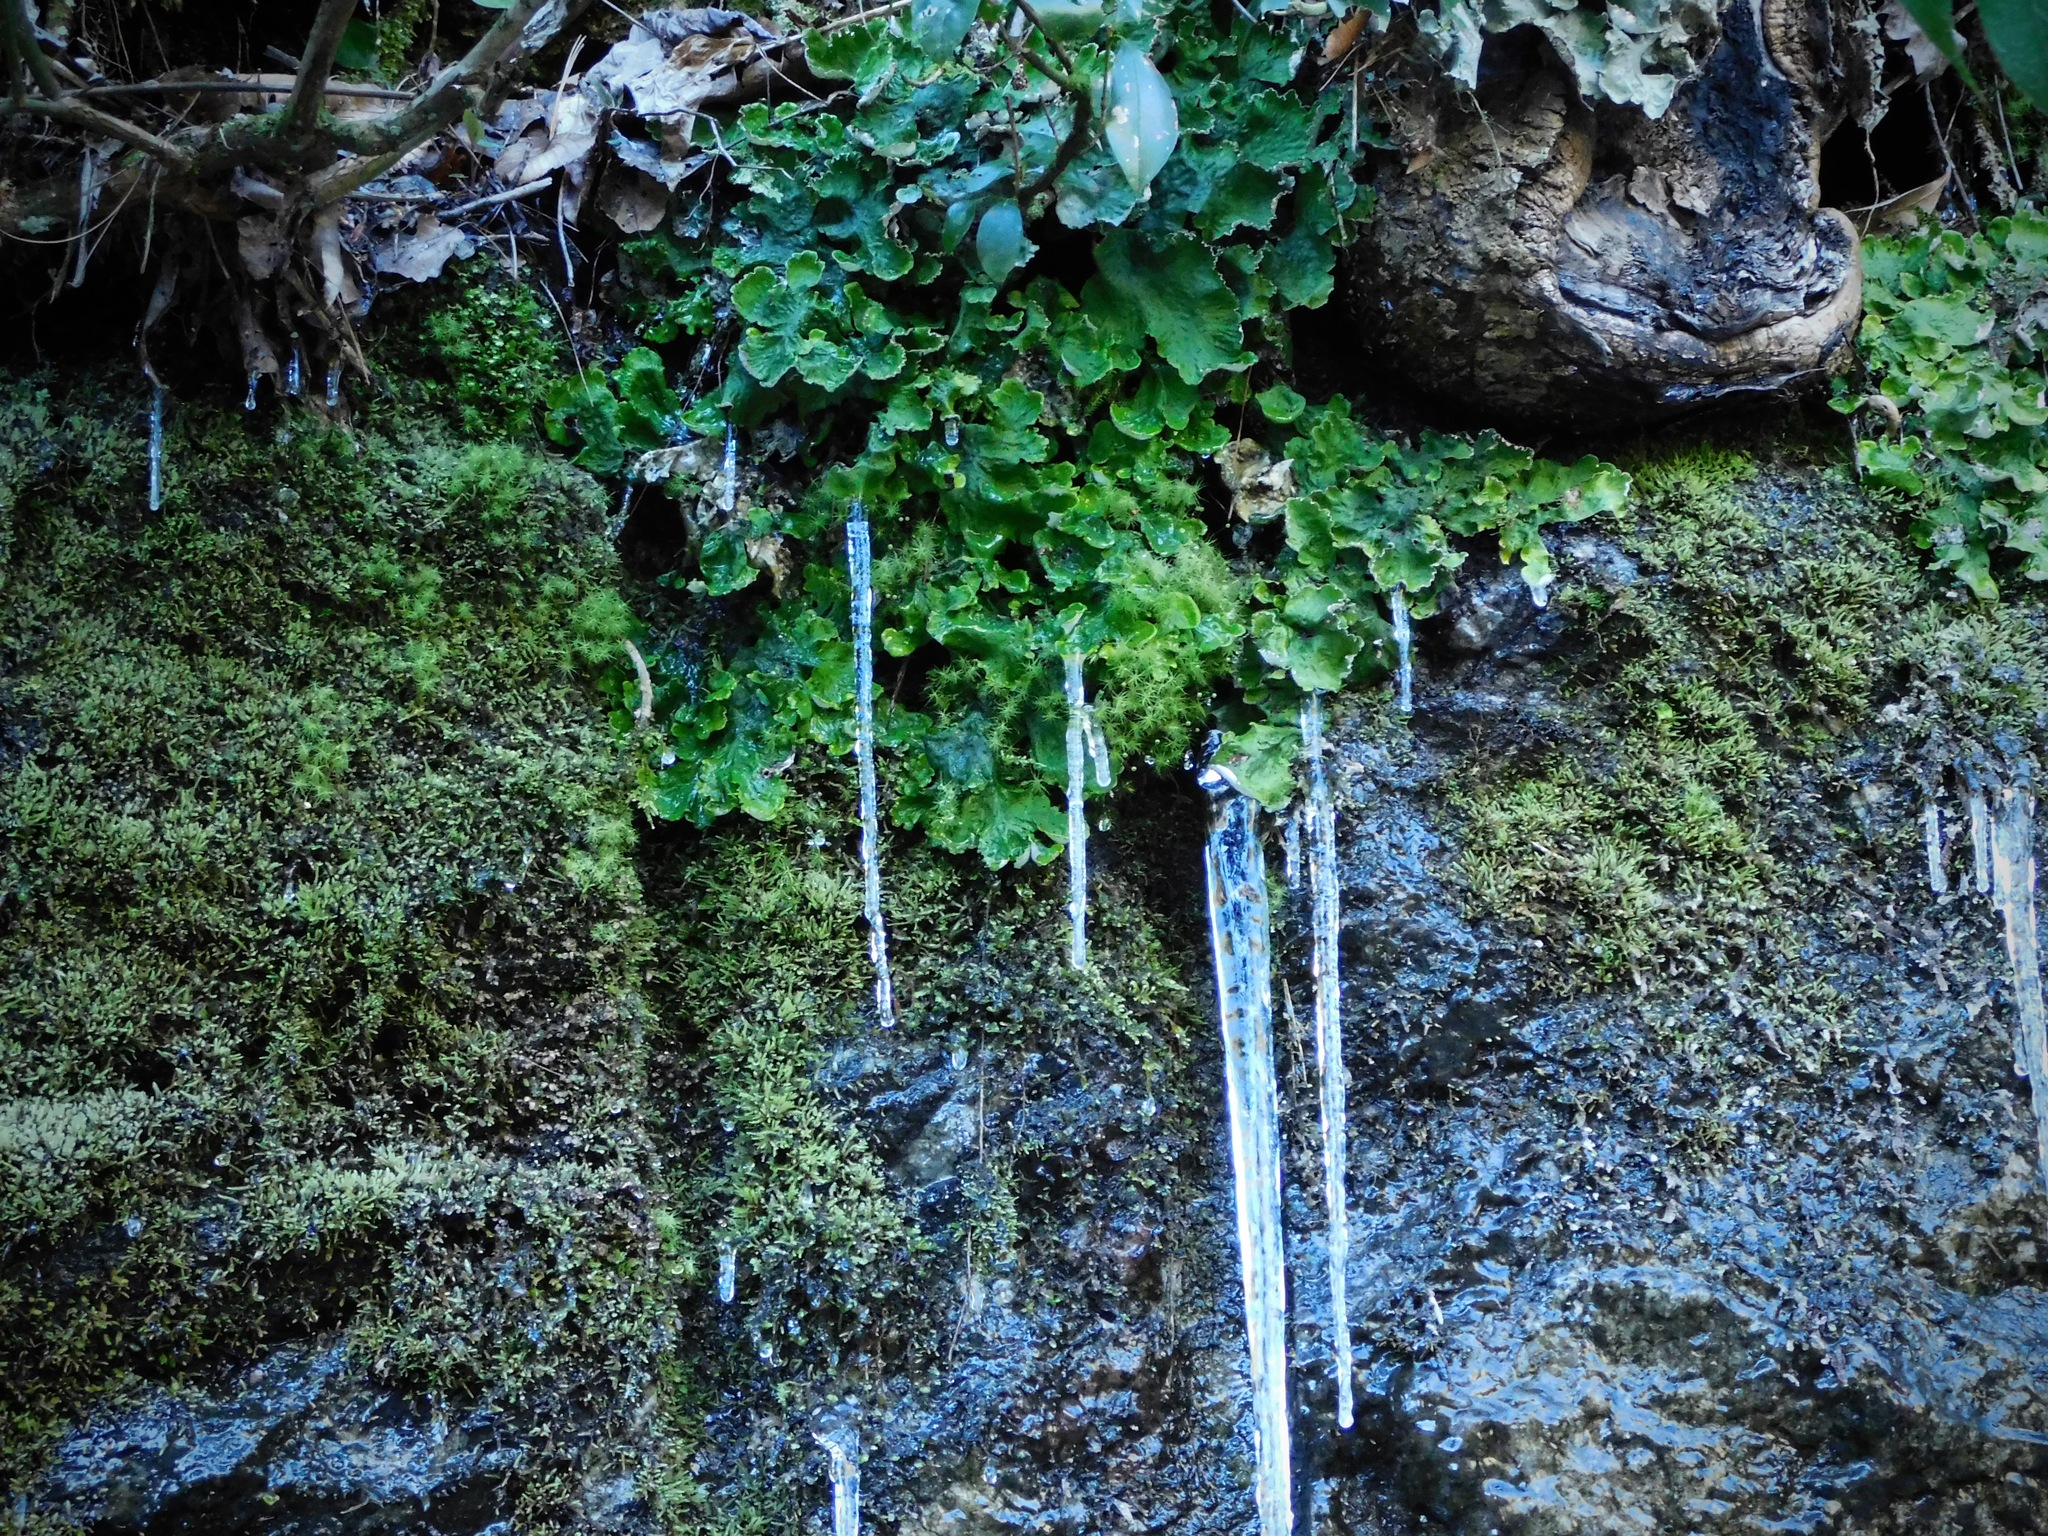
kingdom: Fungi
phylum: Ascomycota
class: Lecanoromycetes
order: Peltigerales
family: Peltigeraceae
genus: Peltigera
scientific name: Peltigera leucophlebia
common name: Ruffled freckle pelt lichen
